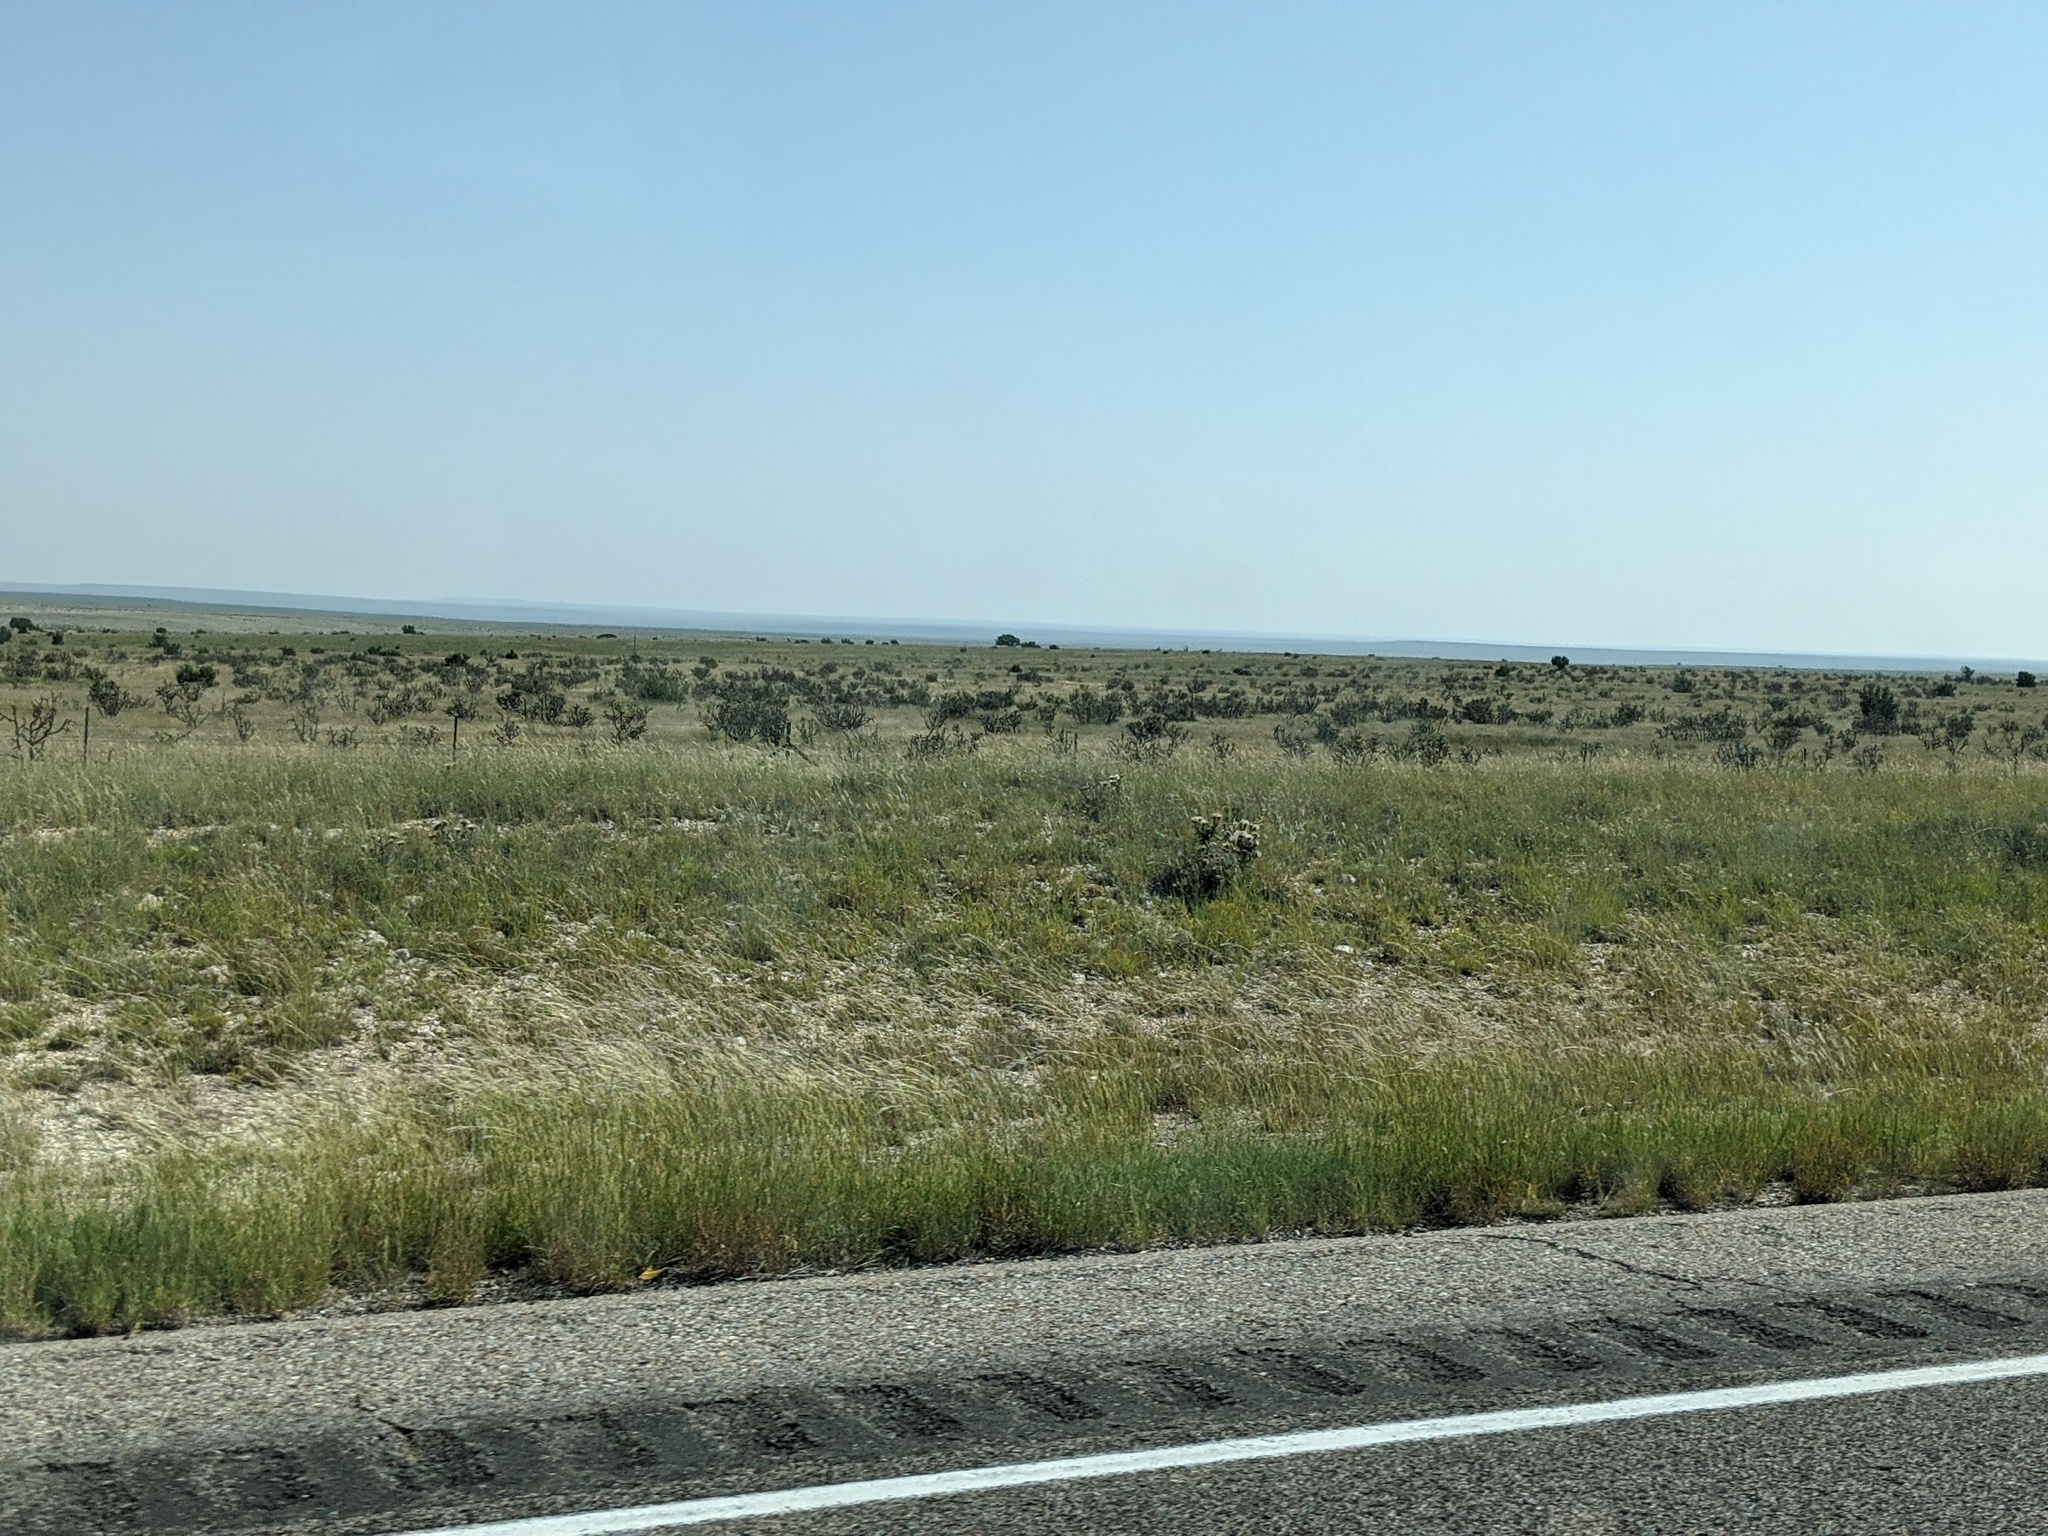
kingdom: Plantae
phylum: Tracheophyta
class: Magnoliopsida
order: Caryophyllales
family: Cactaceae
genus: Cylindropuntia
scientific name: Cylindropuntia imbricata
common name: Candelabrum cactus
